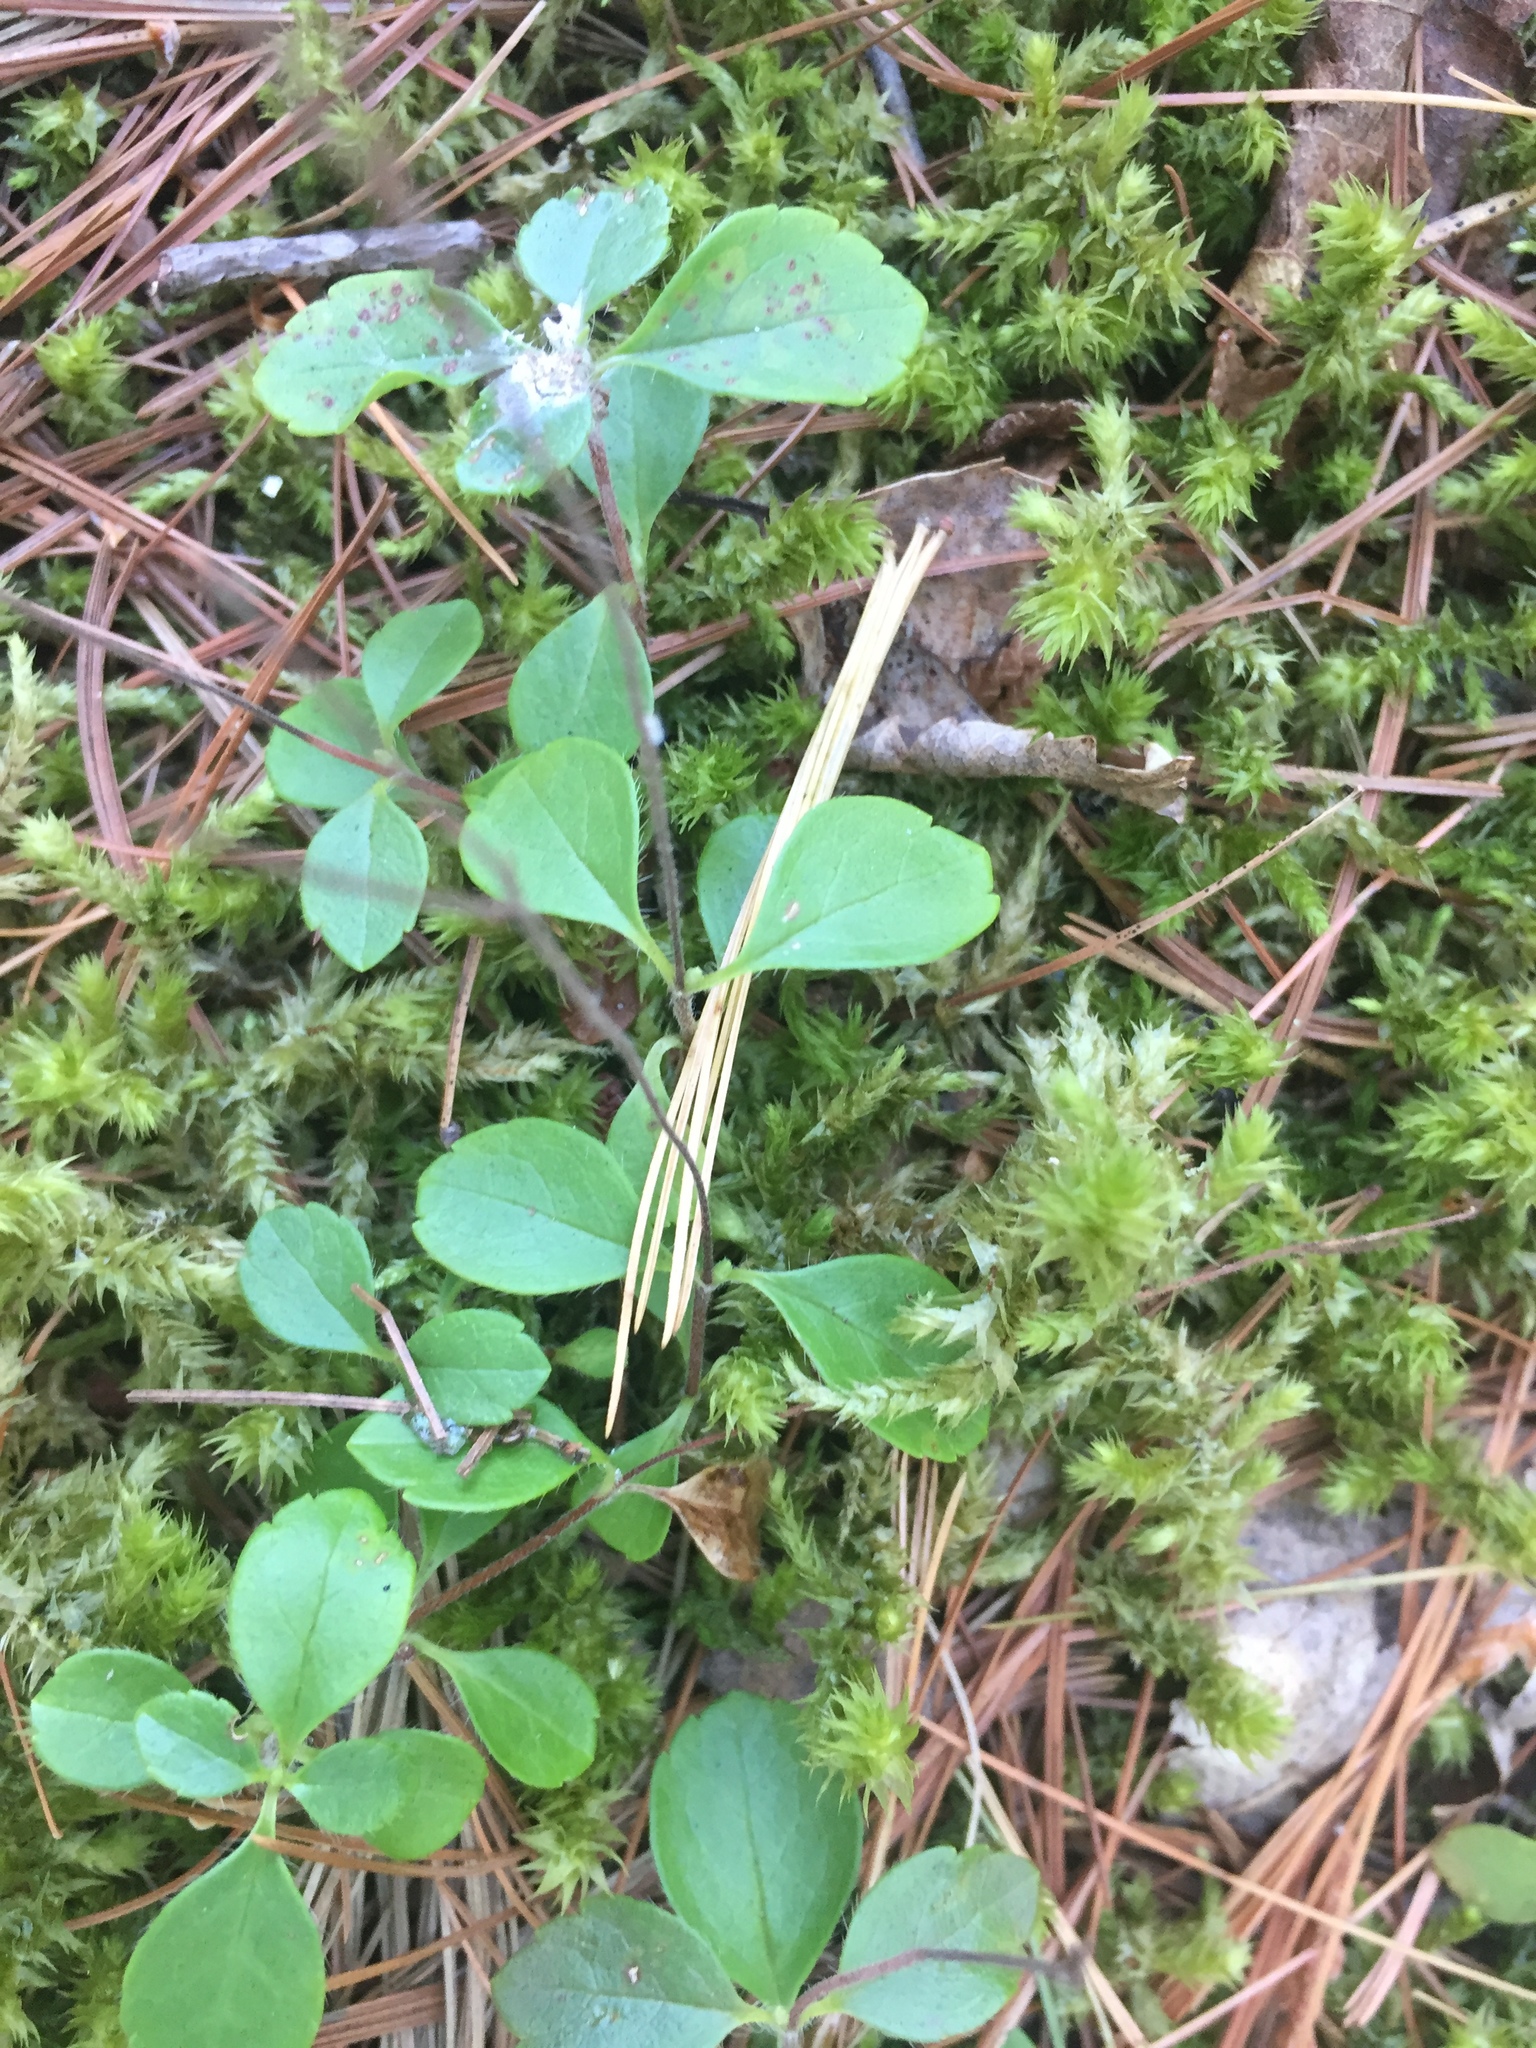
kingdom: Plantae
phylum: Tracheophyta
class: Magnoliopsida
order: Dipsacales
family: Caprifoliaceae
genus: Linnaea
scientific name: Linnaea borealis
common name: Twinflower
